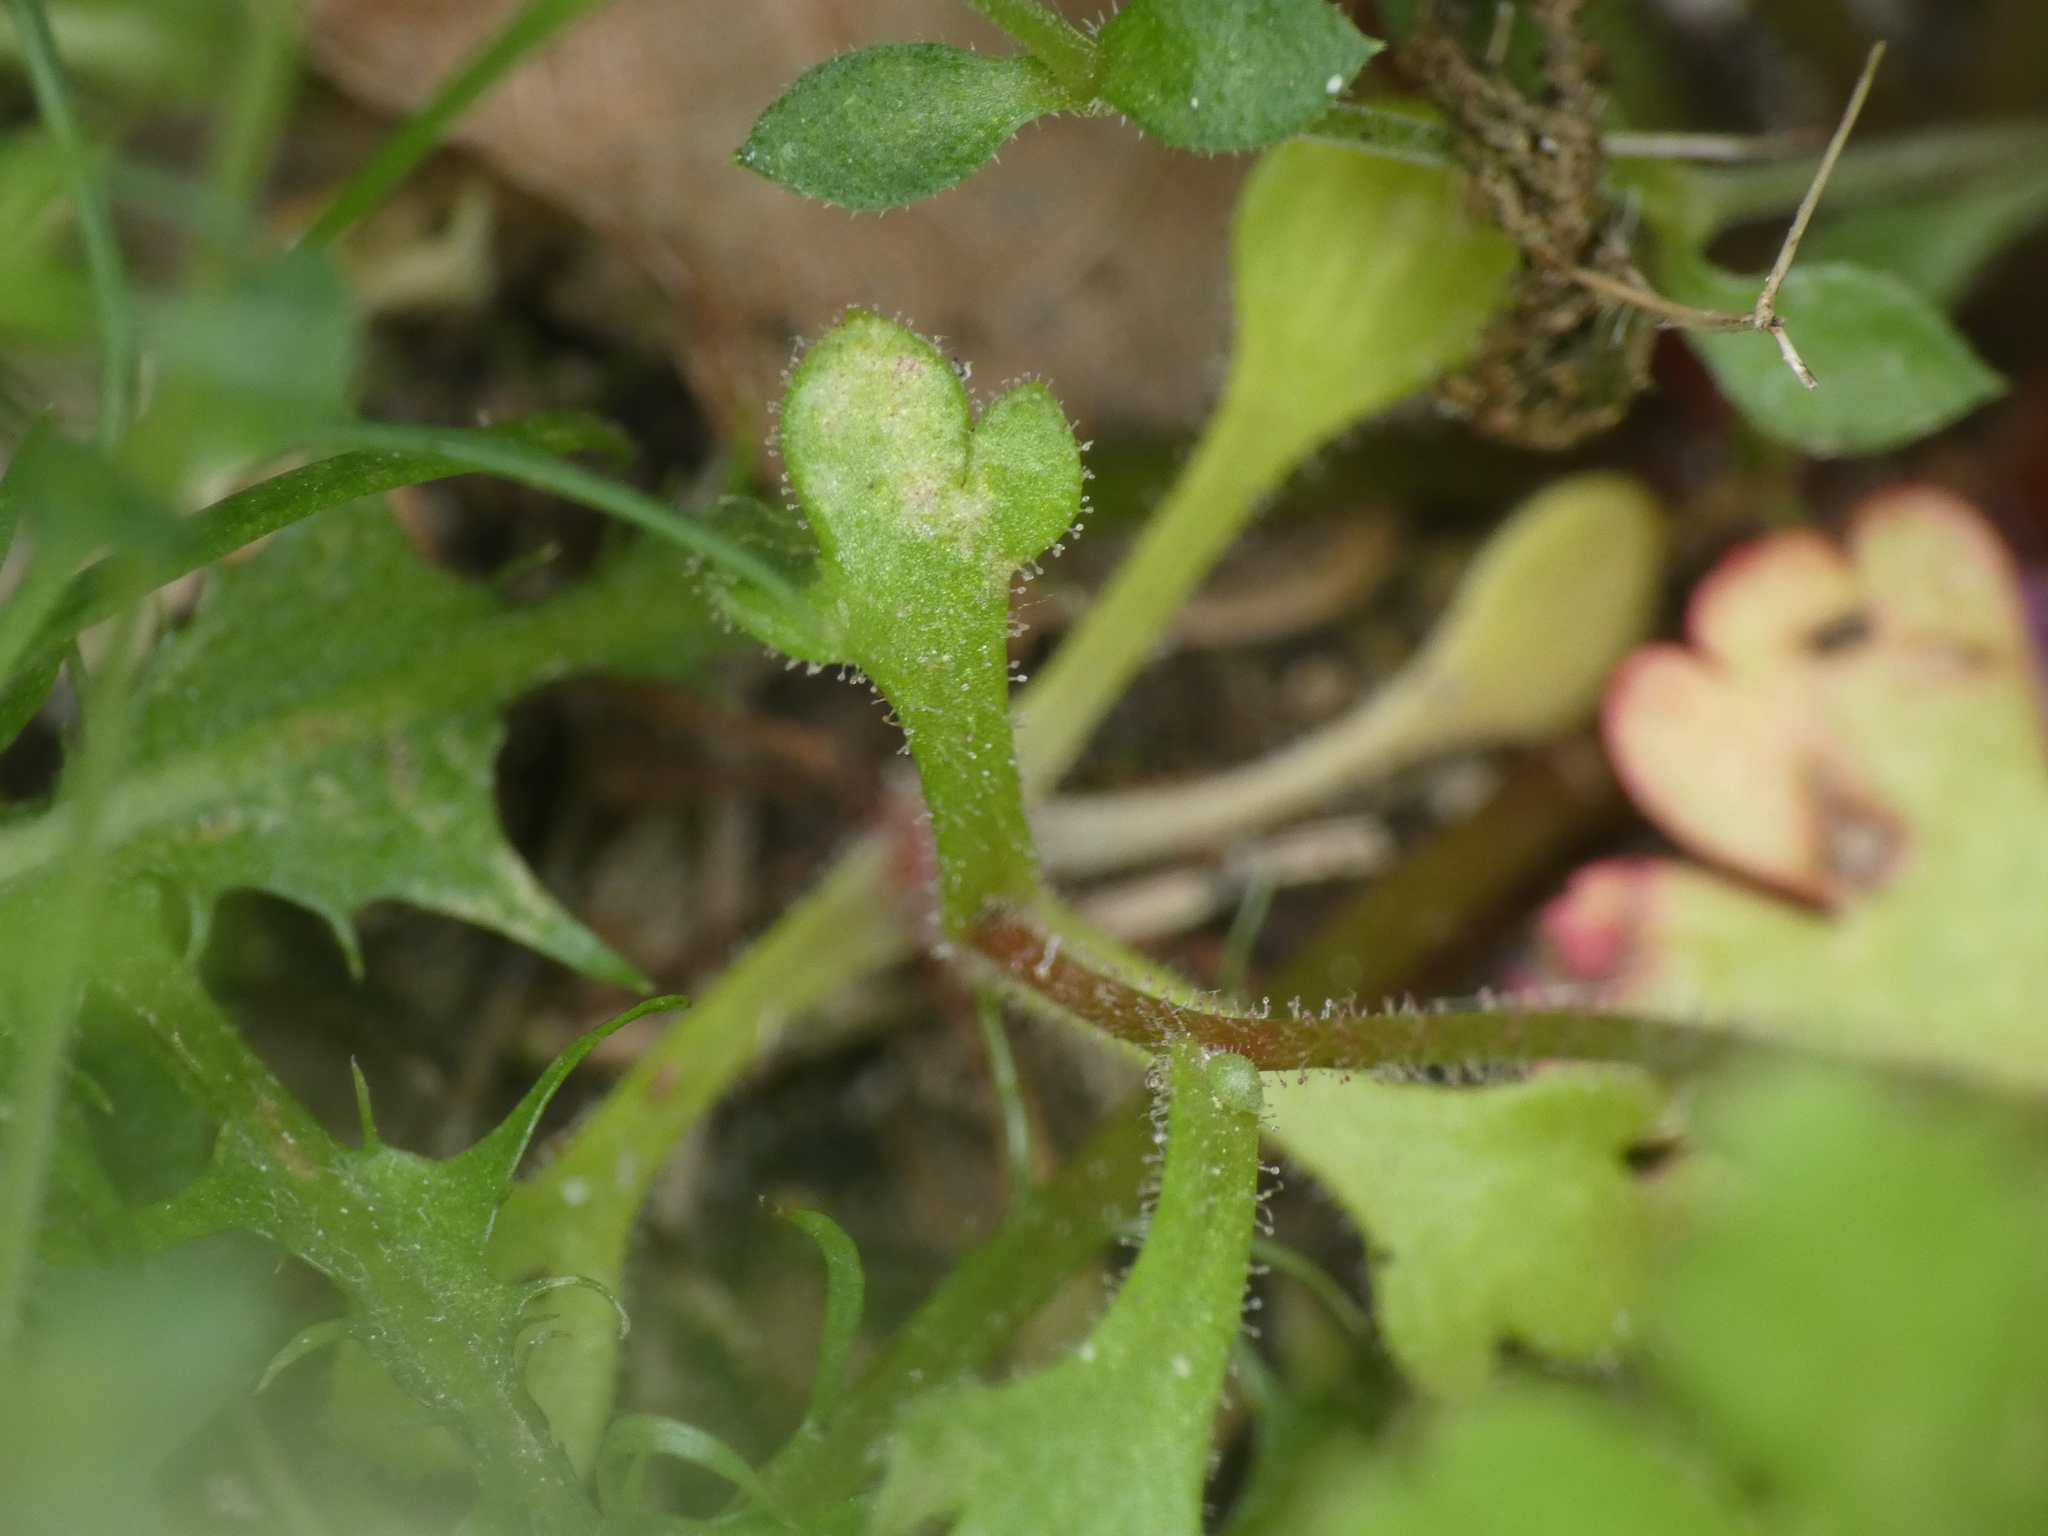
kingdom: Plantae
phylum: Tracheophyta
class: Magnoliopsida
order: Saxifragales
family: Saxifragaceae
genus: Saxifraga
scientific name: Saxifraga tridactylites
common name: Rue-leaved saxifrage
